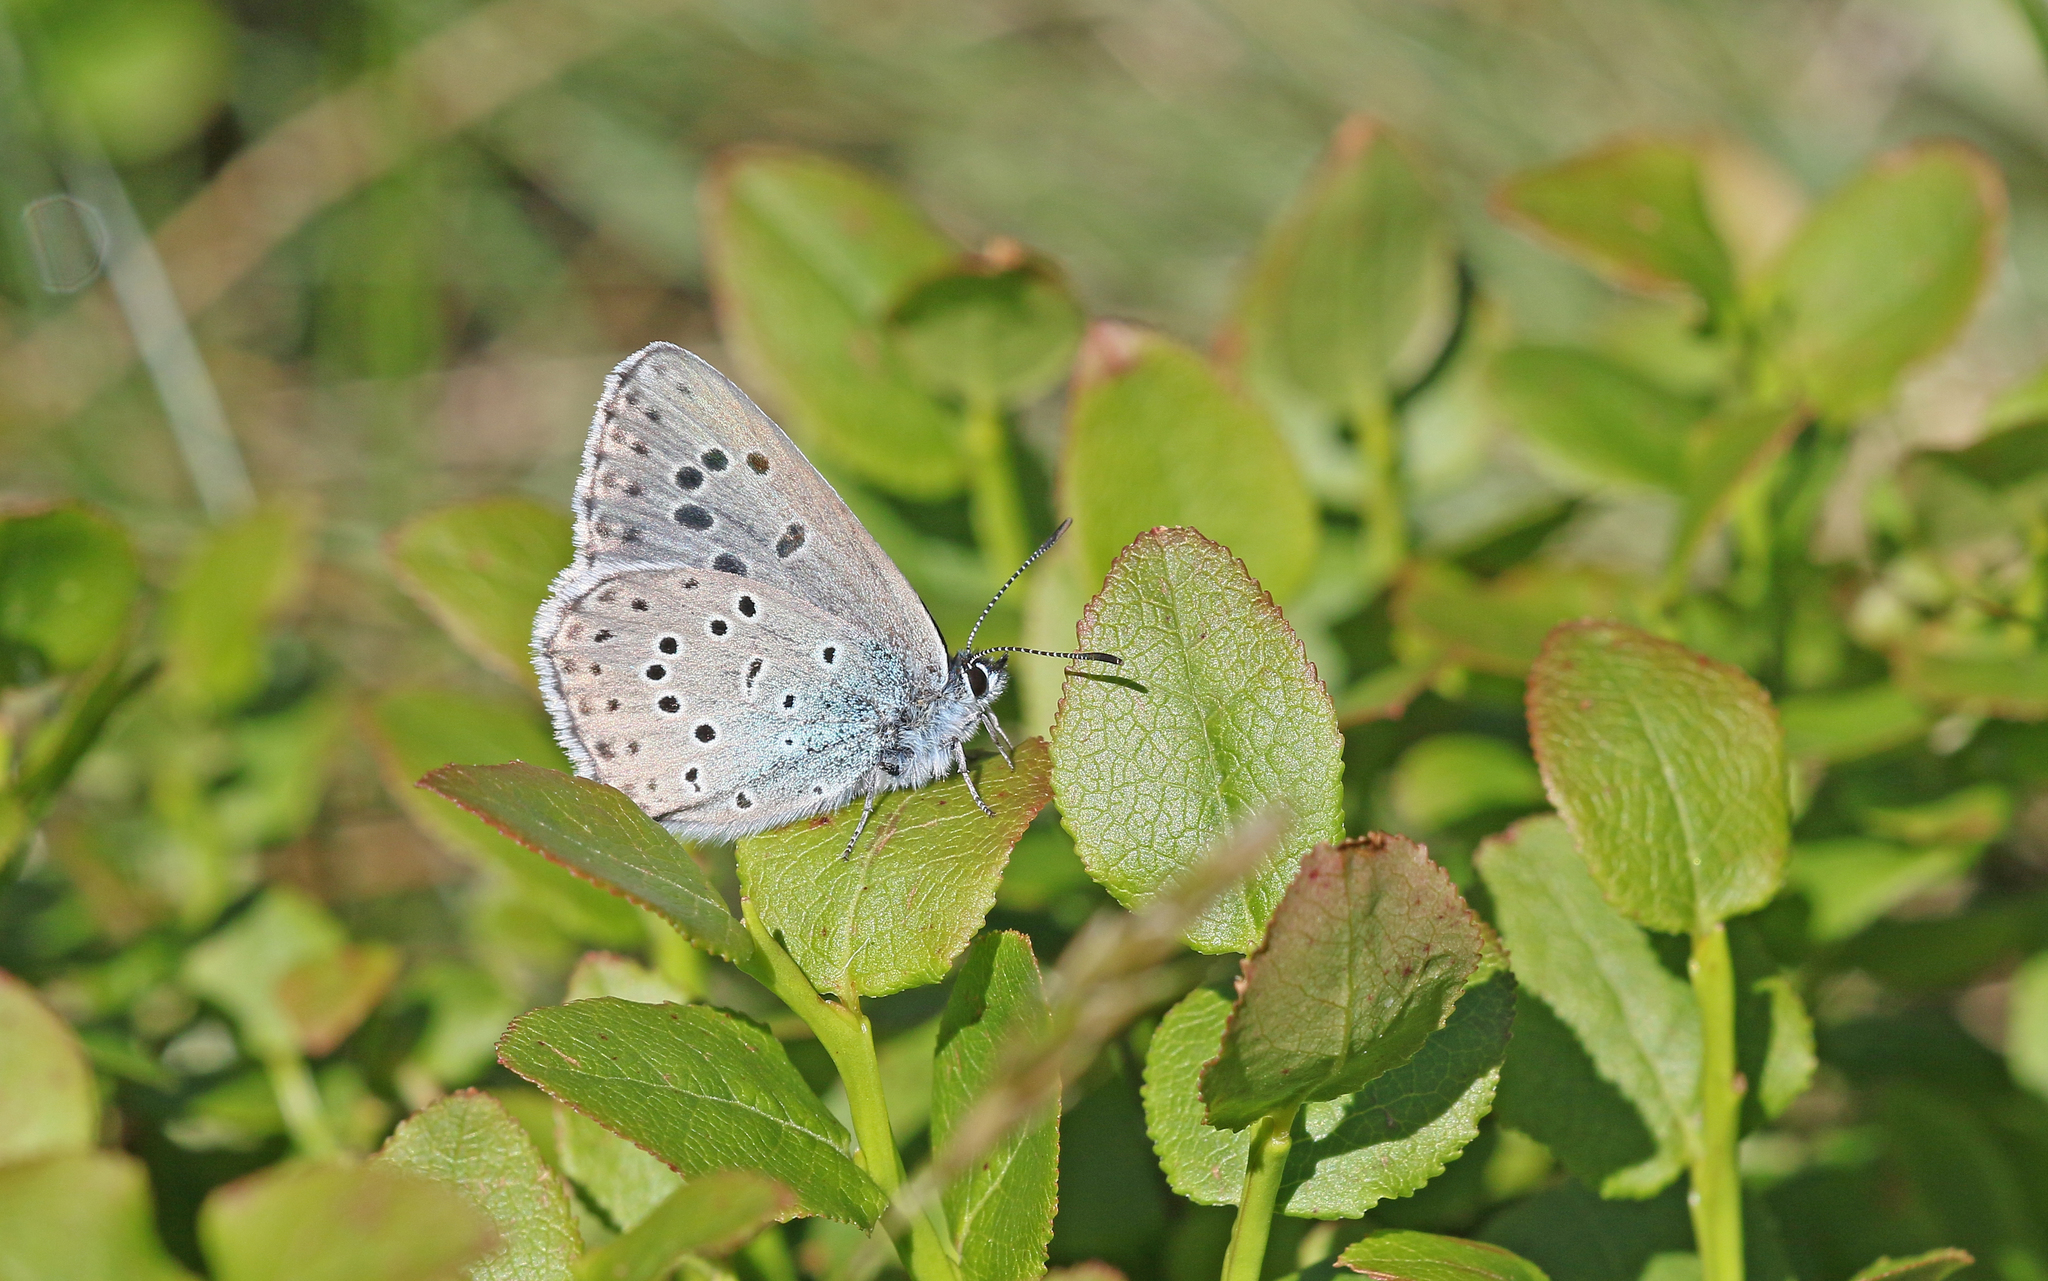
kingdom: Animalia
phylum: Arthropoda
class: Insecta
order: Lepidoptera
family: Lycaenidae
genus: Maculinea
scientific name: Maculinea arion
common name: Large blue
